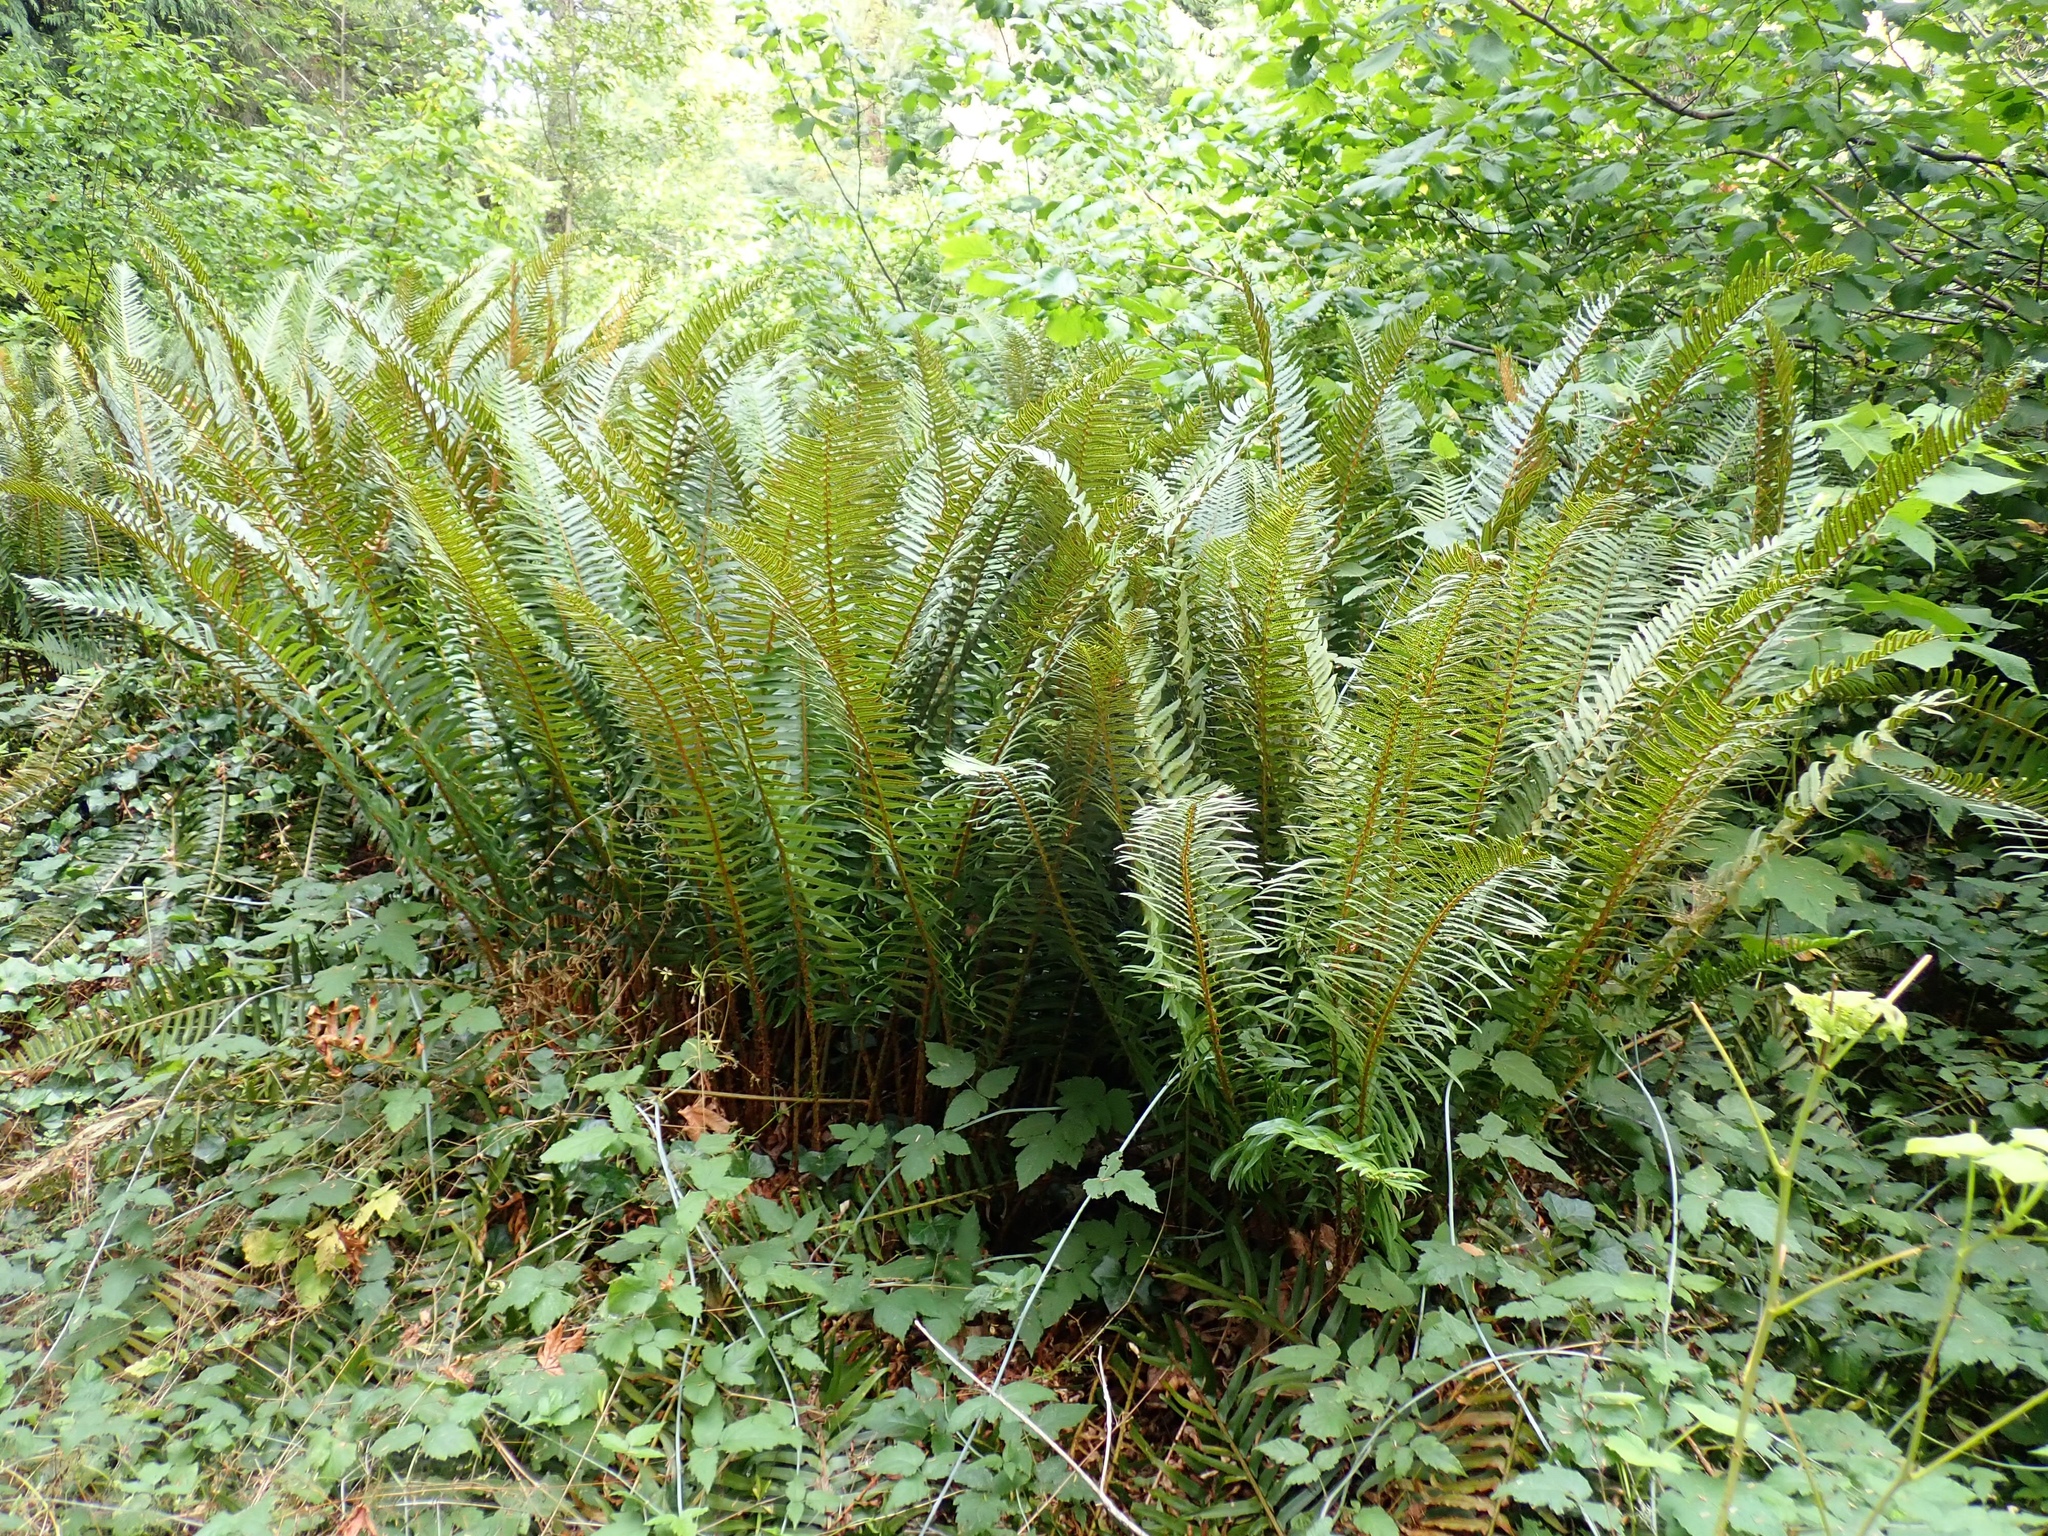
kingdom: Plantae
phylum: Tracheophyta
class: Polypodiopsida
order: Polypodiales
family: Dryopteridaceae
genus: Polystichum
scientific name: Polystichum munitum
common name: Western sword-fern
